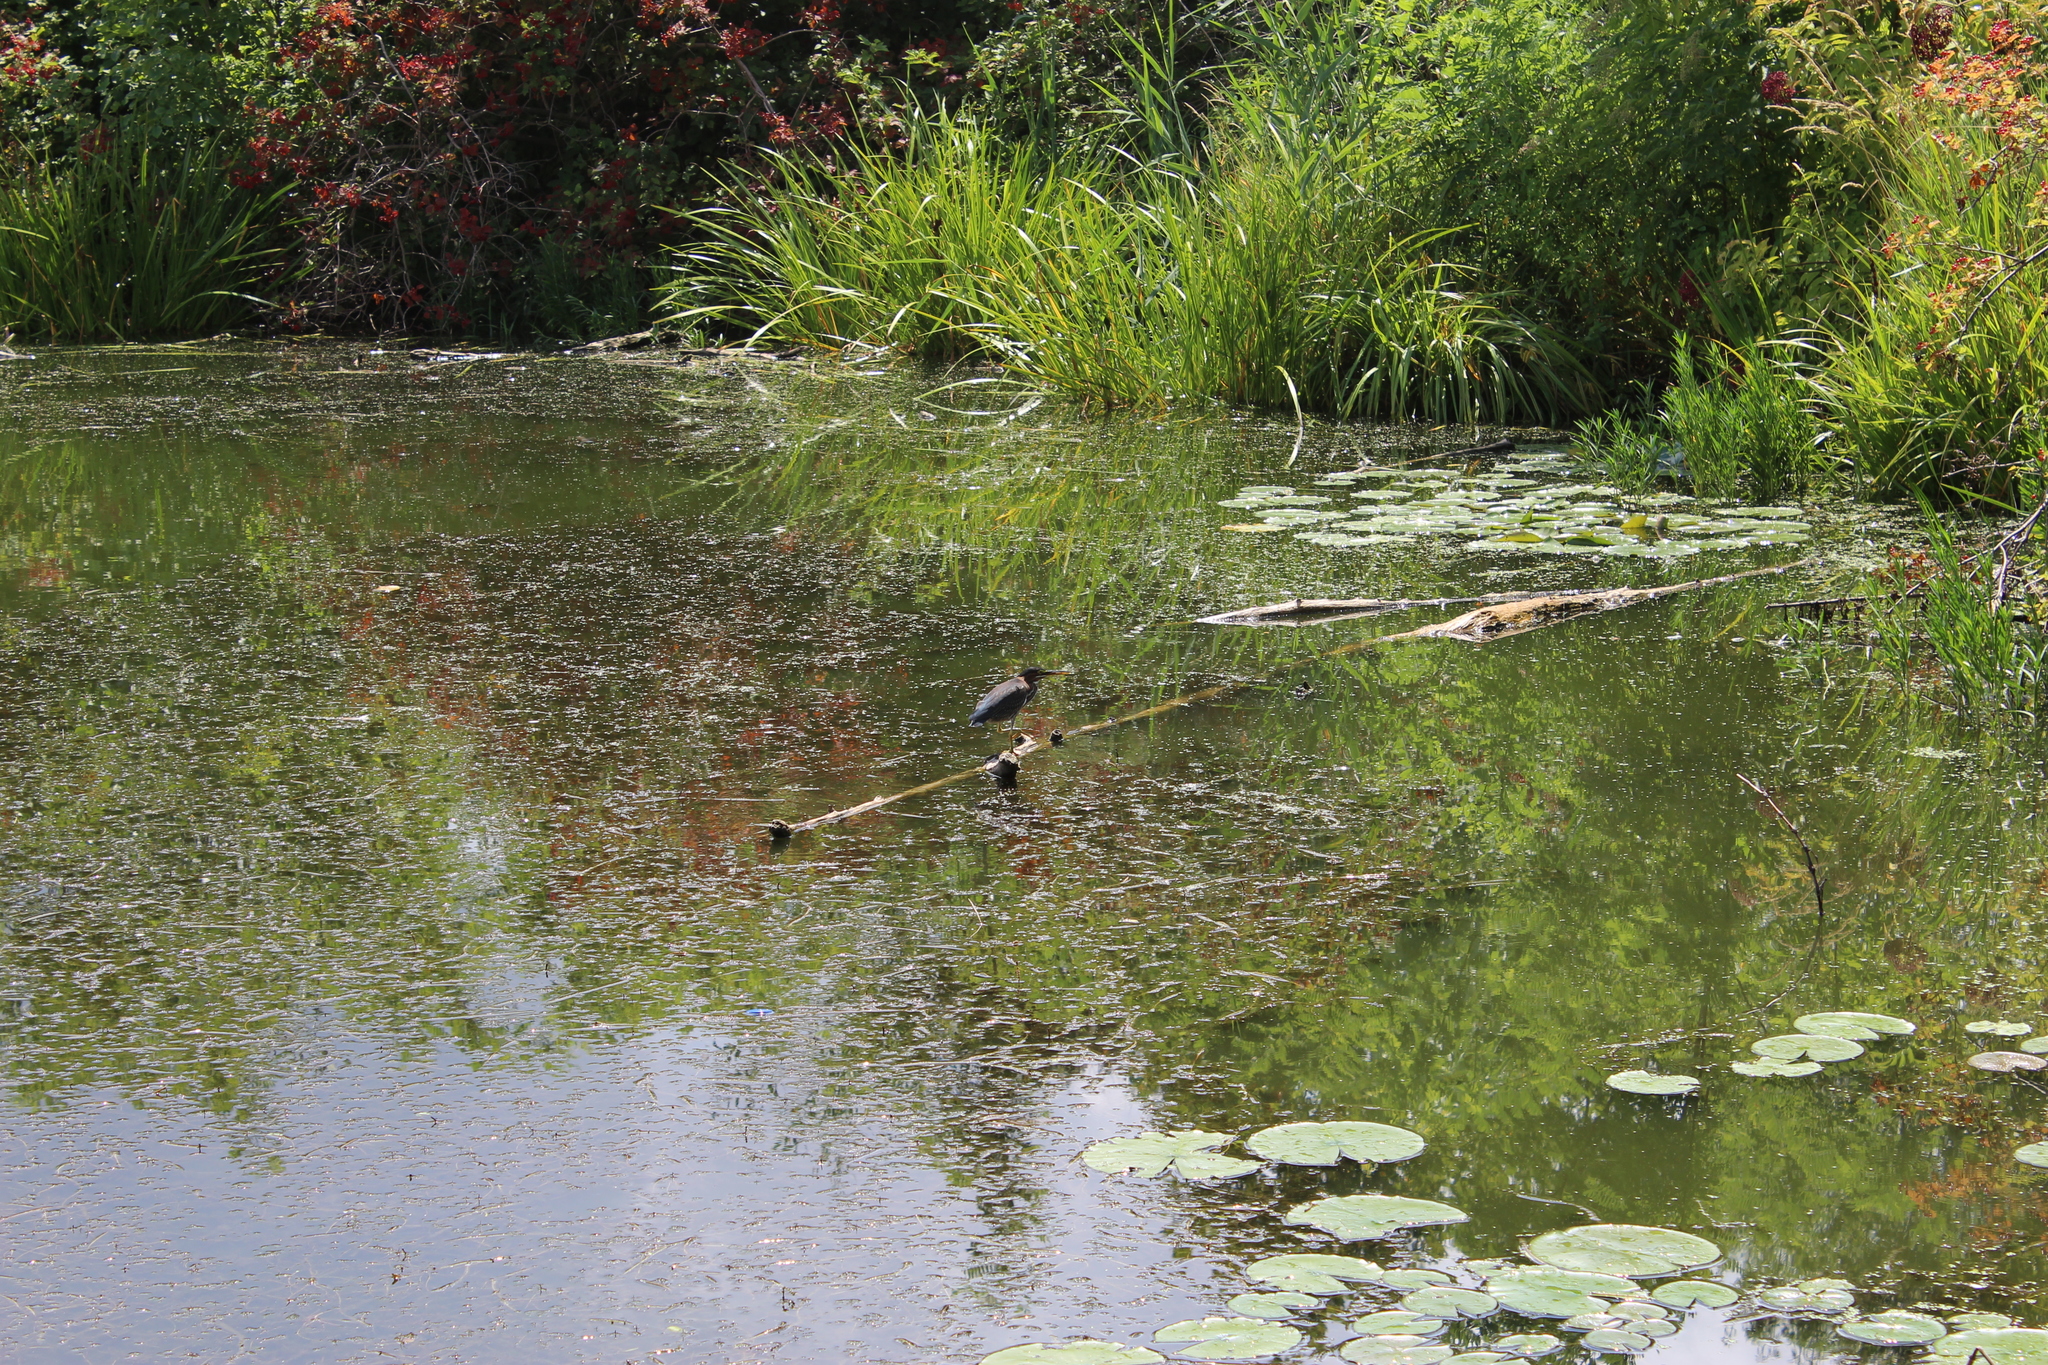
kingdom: Animalia
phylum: Chordata
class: Aves
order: Pelecaniformes
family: Ardeidae
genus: Butorides
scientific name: Butorides virescens
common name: Green heron
